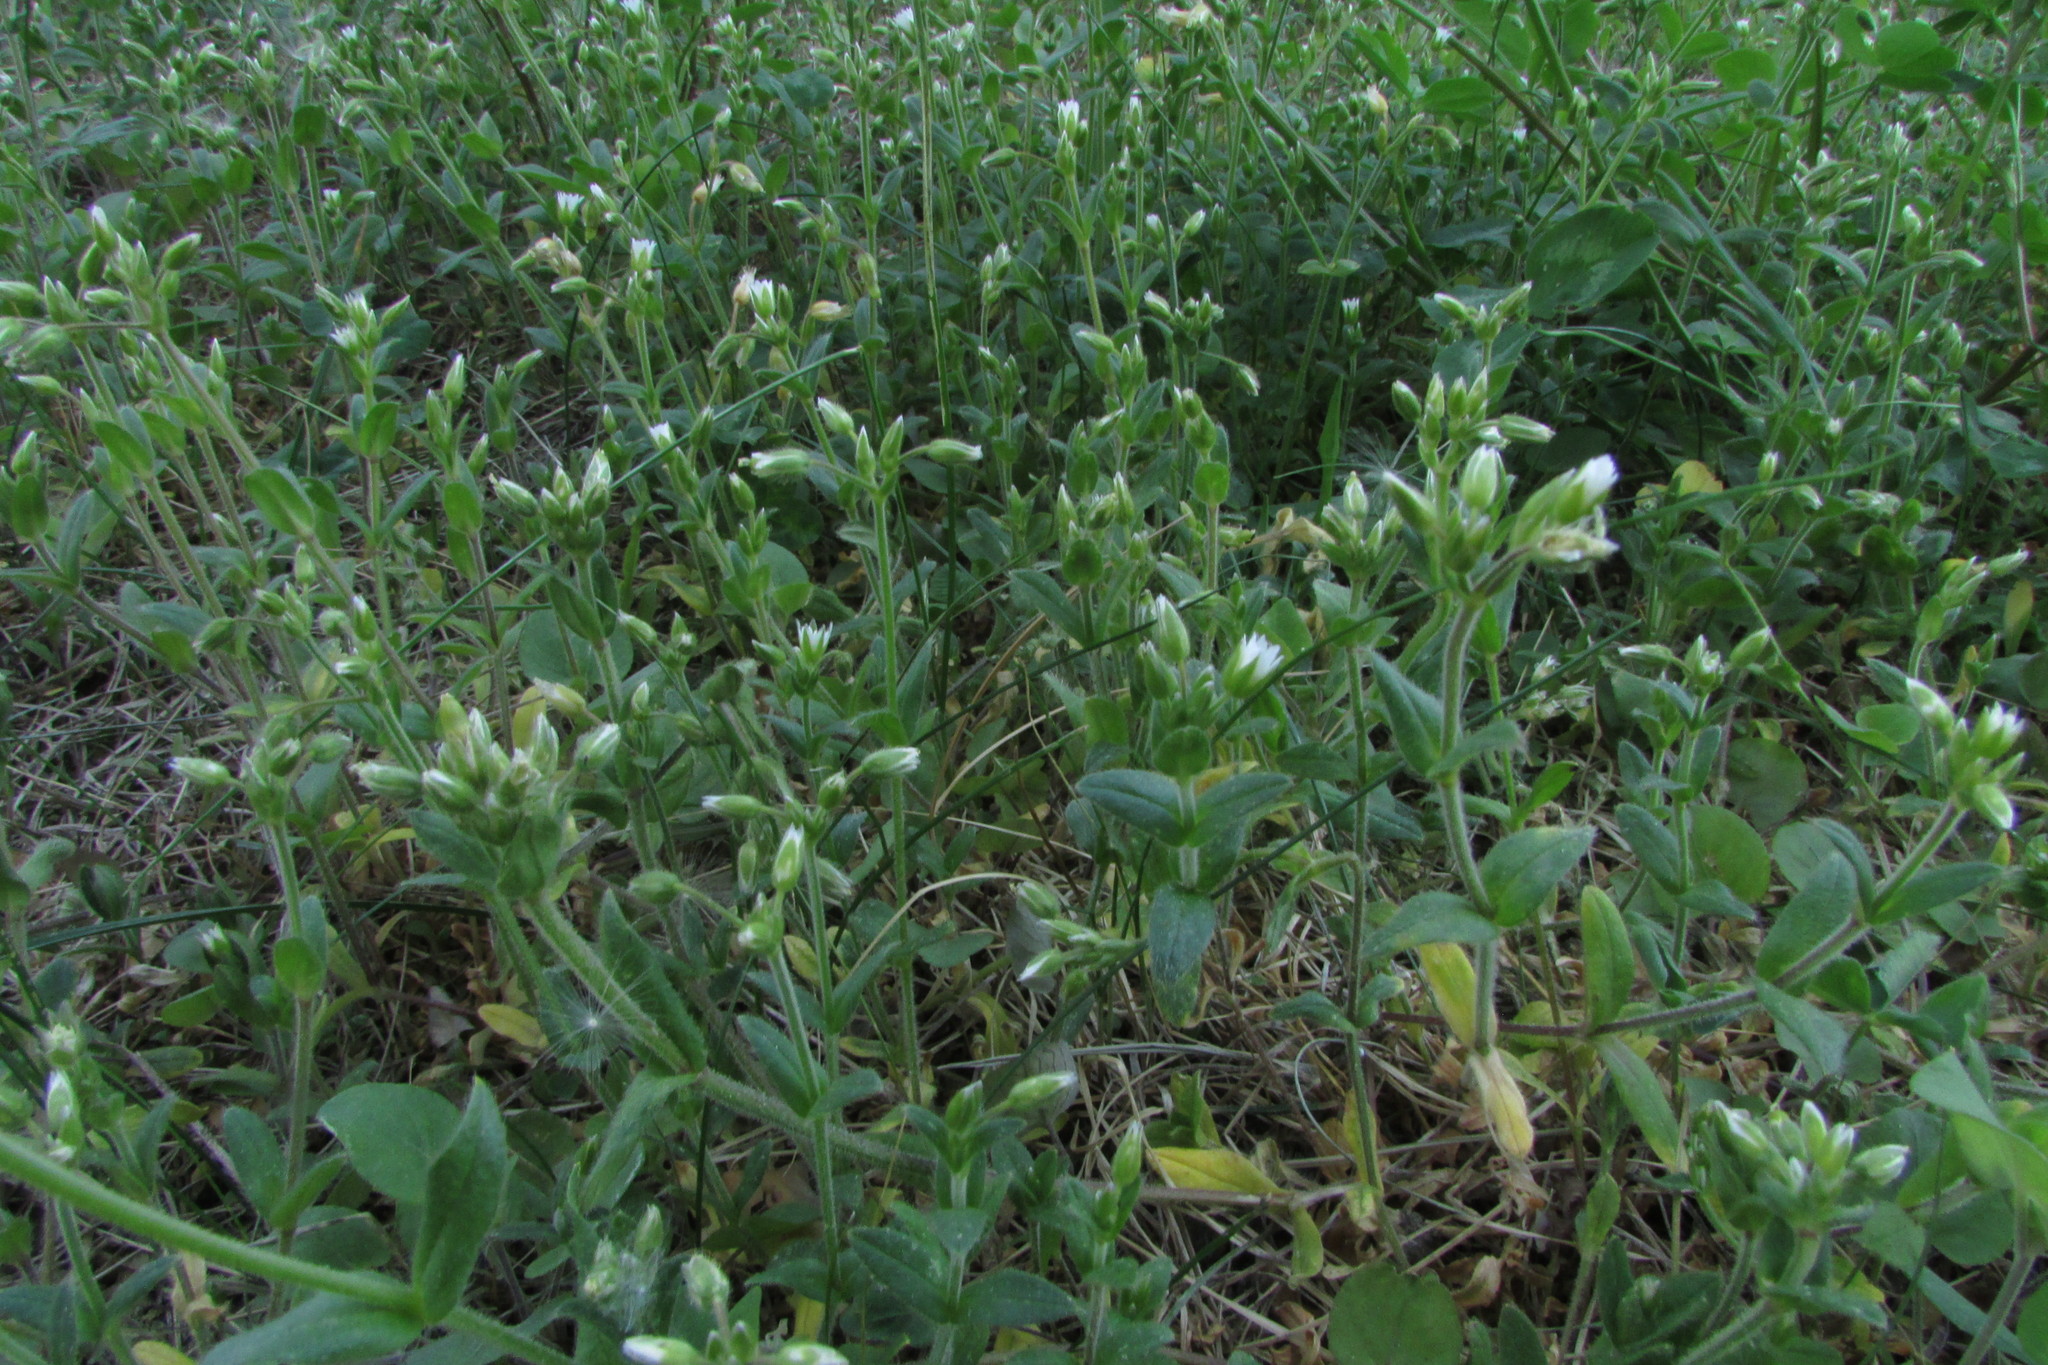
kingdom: Plantae
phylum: Tracheophyta
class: Magnoliopsida
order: Caryophyllales
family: Caryophyllaceae
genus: Cerastium
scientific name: Cerastium holosteoides
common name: Big chickweed
